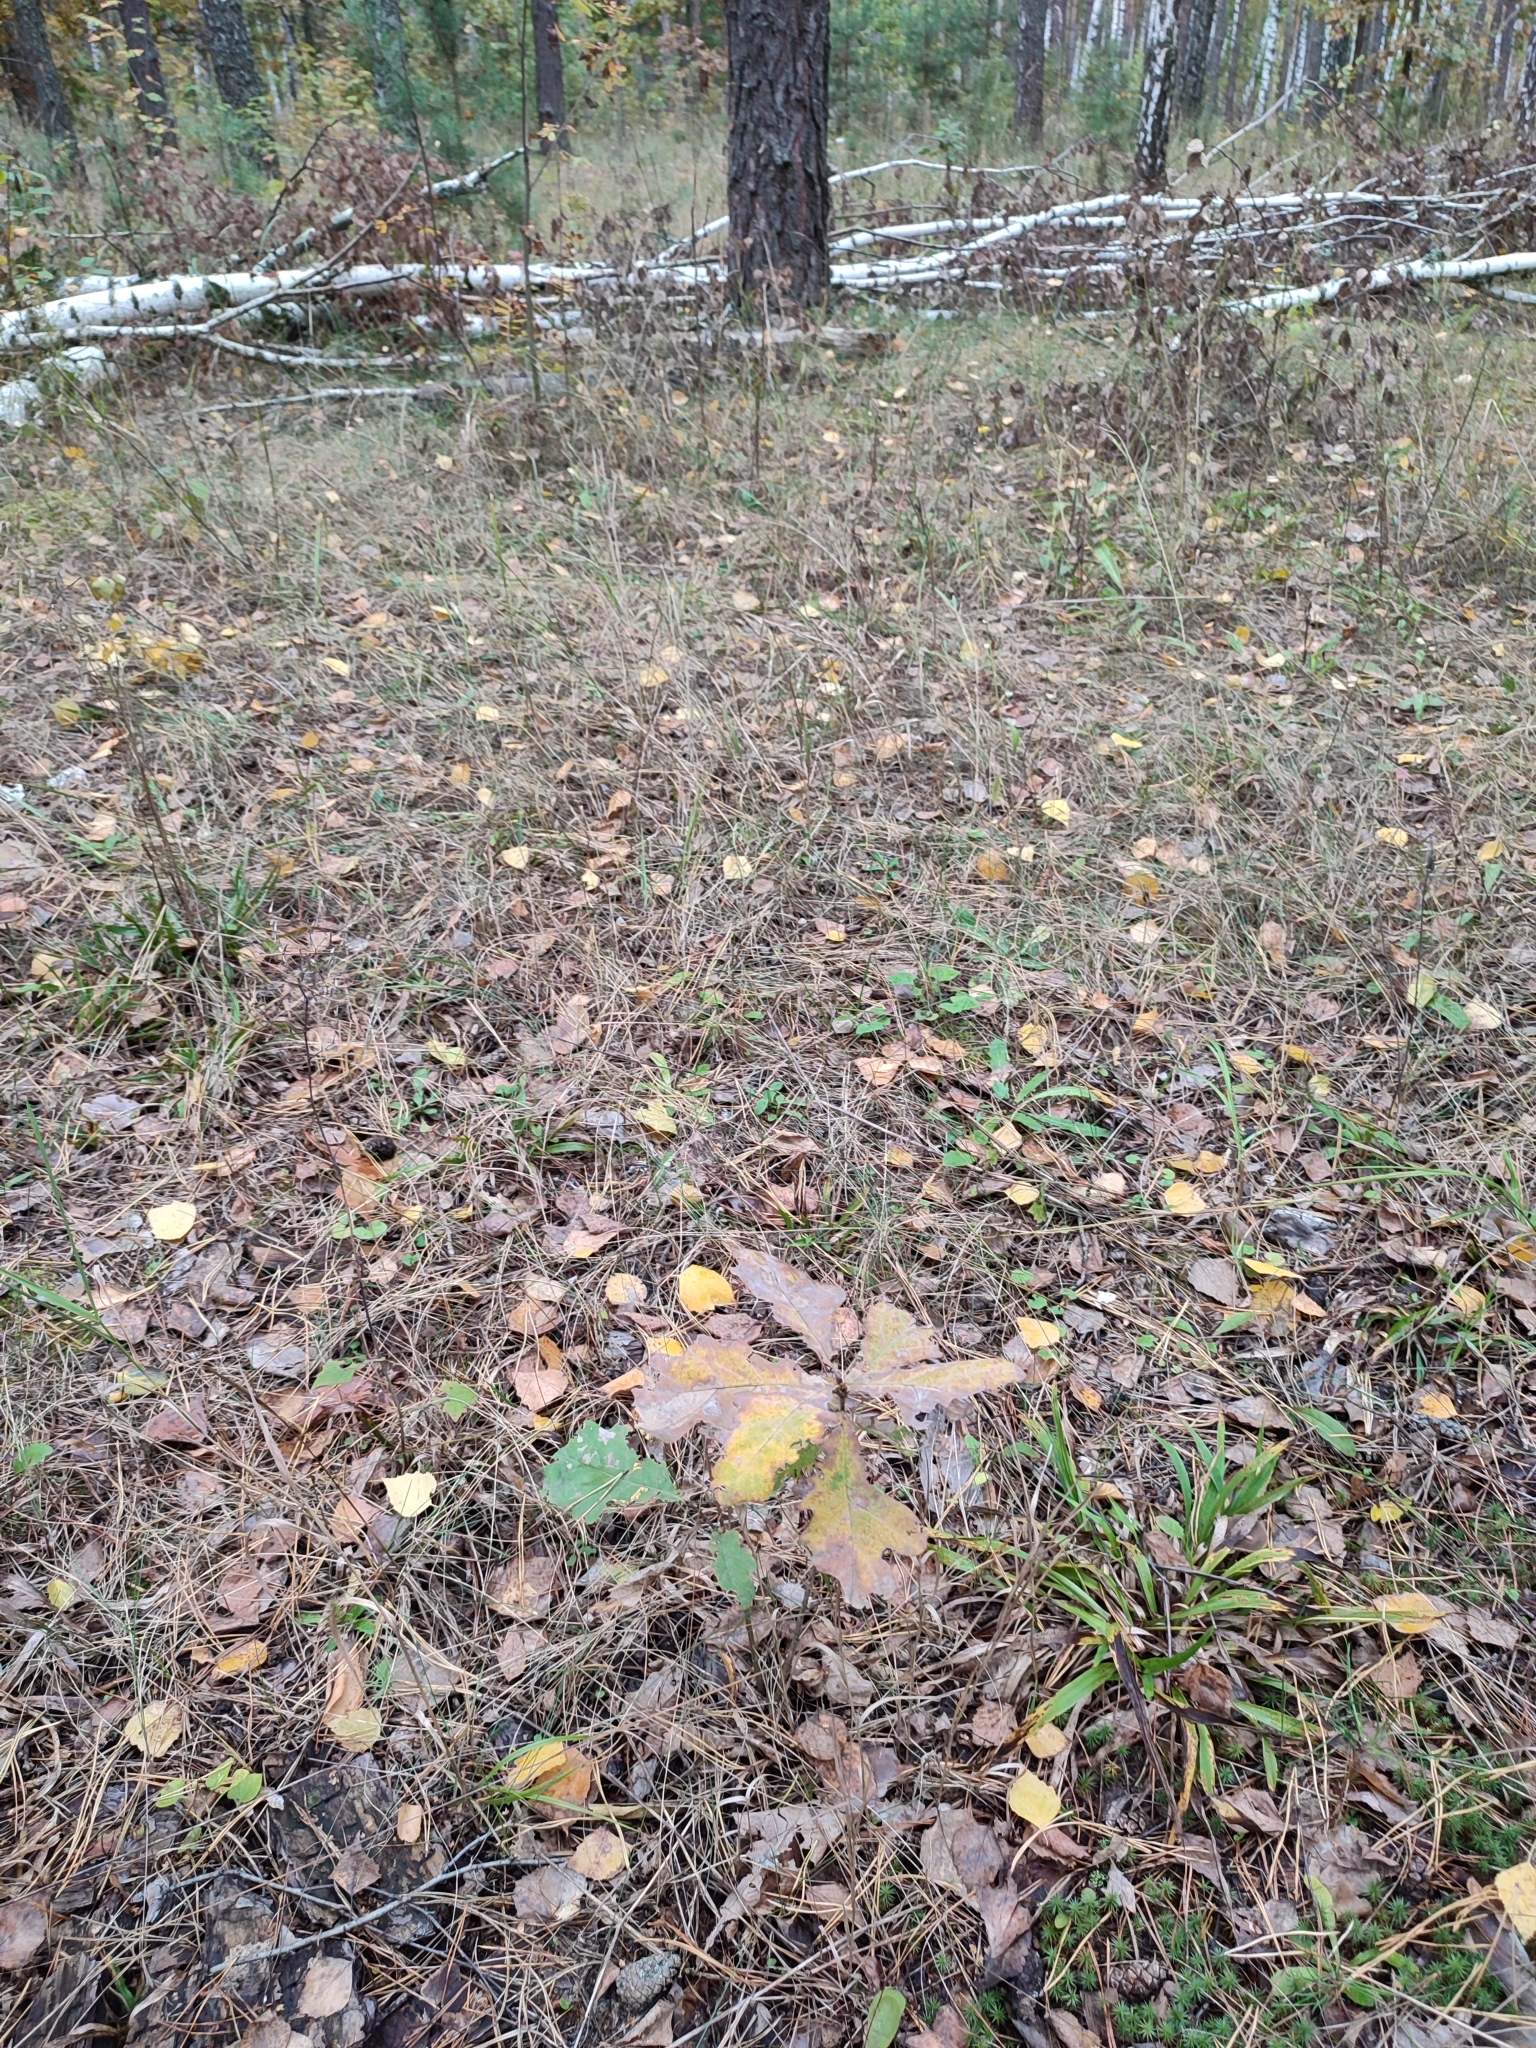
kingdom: Plantae
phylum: Tracheophyta
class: Magnoliopsida
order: Fagales
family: Fagaceae
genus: Quercus
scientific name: Quercus robur
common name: Pedunculate oak
